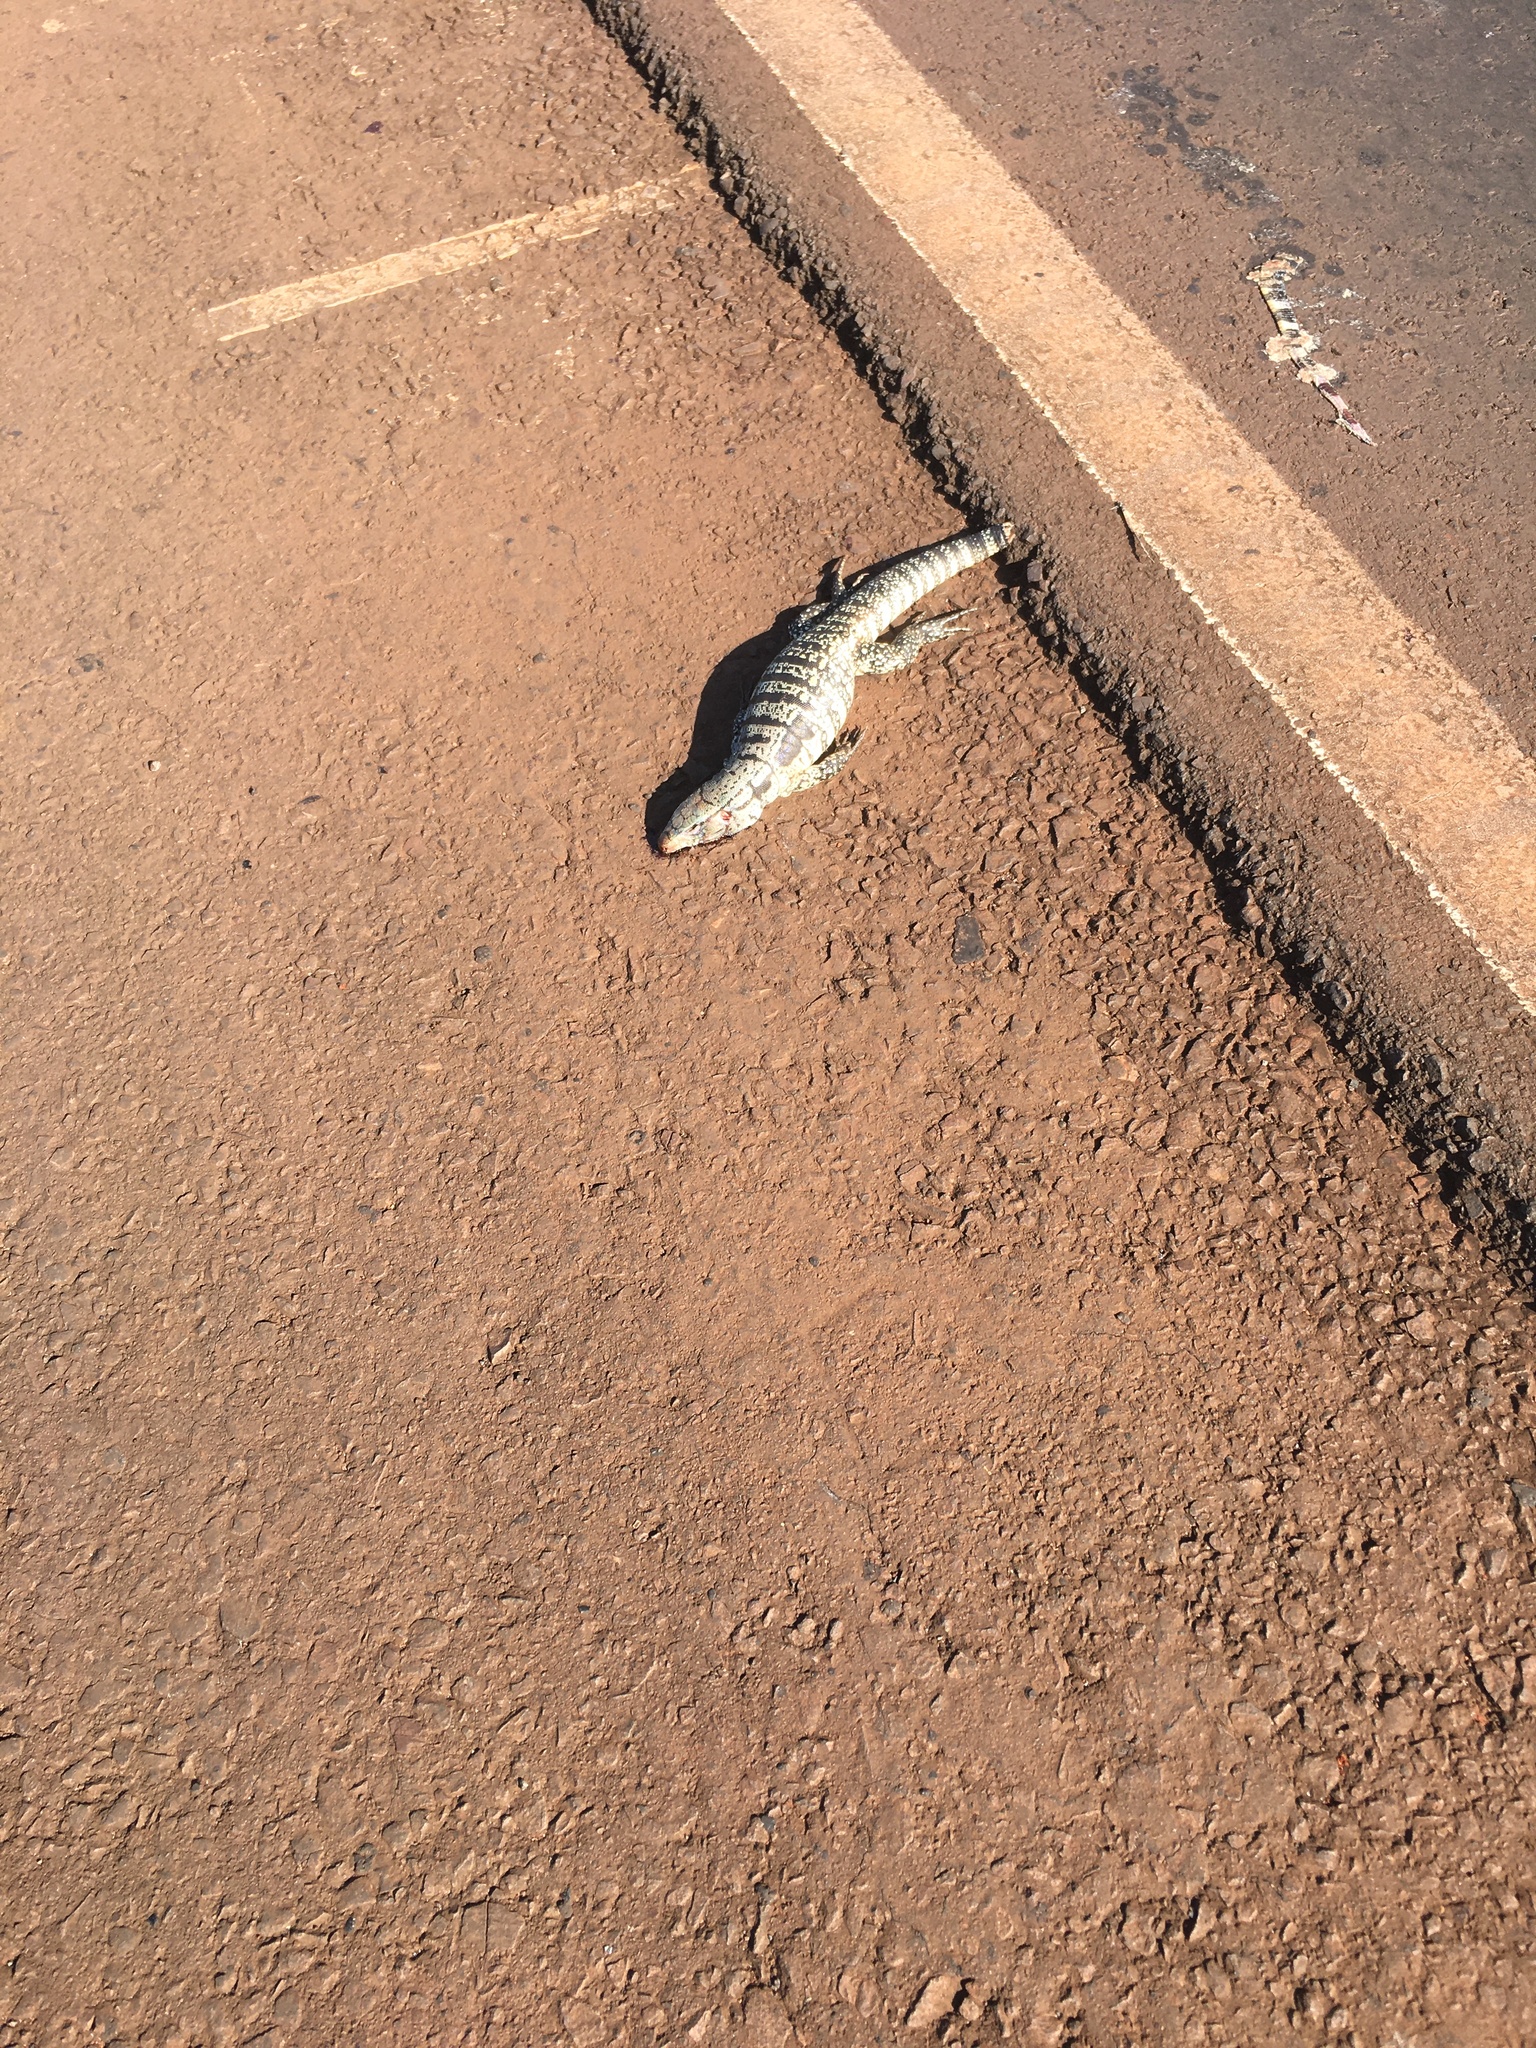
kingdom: Animalia
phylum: Chordata
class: Squamata
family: Teiidae
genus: Salvator
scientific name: Salvator merianae
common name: Argentine black and white tegu
